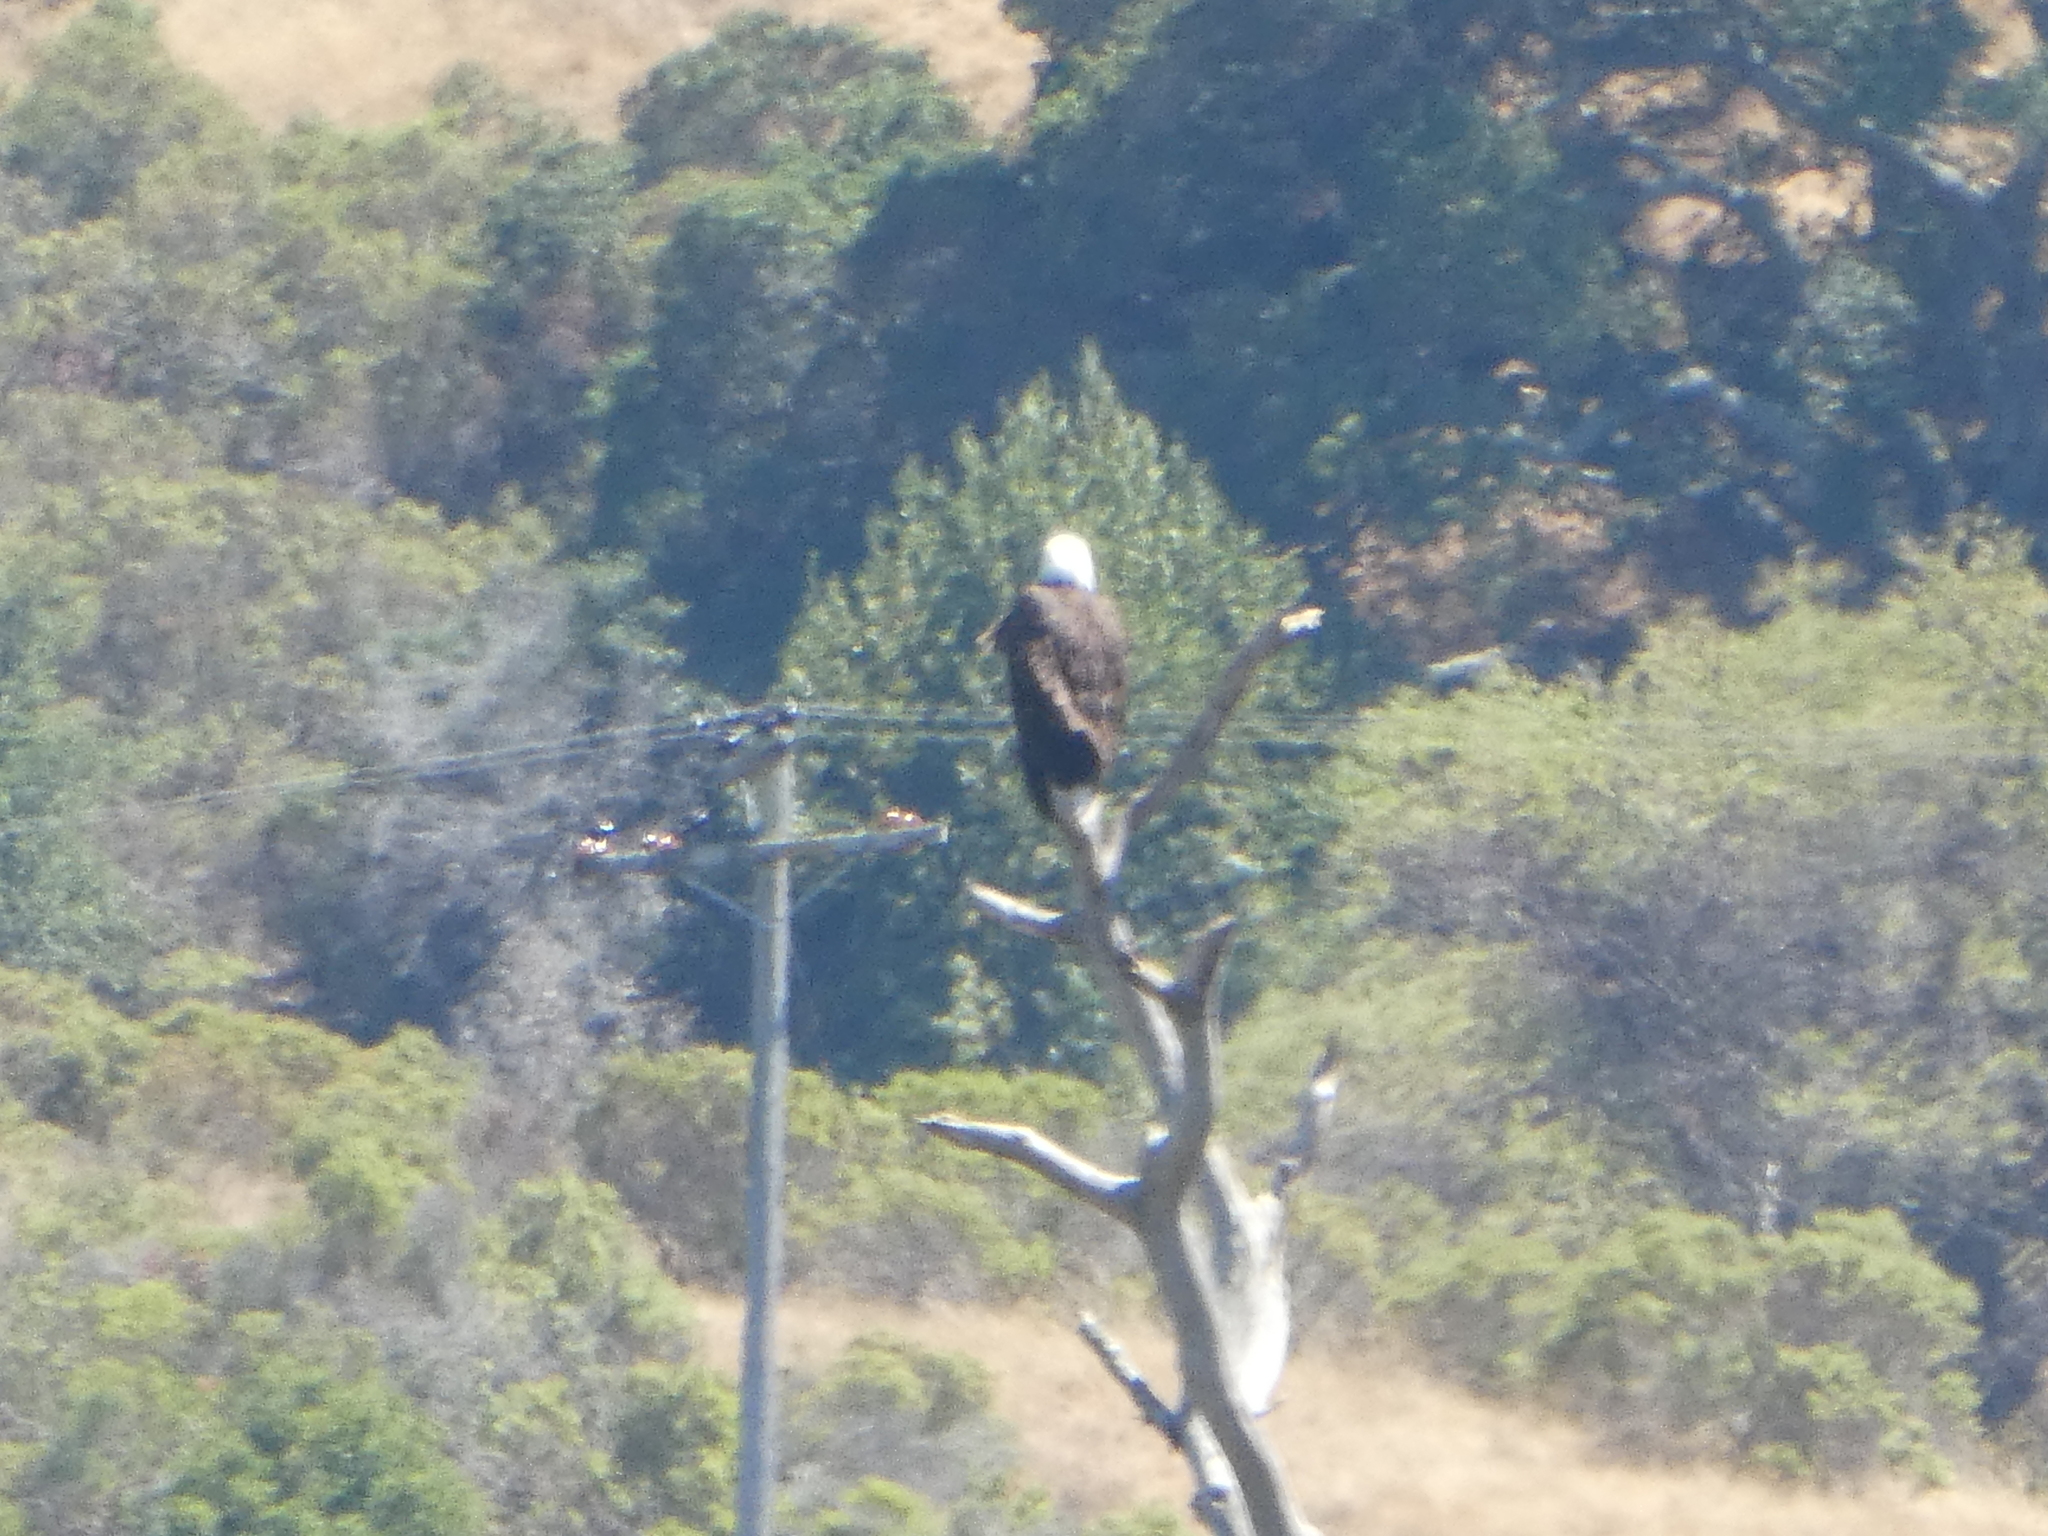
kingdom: Animalia
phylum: Chordata
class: Aves
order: Accipitriformes
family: Accipitridae
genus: Haliaeetus
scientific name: Haliaeetus leucocephalus
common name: Bald eagle
